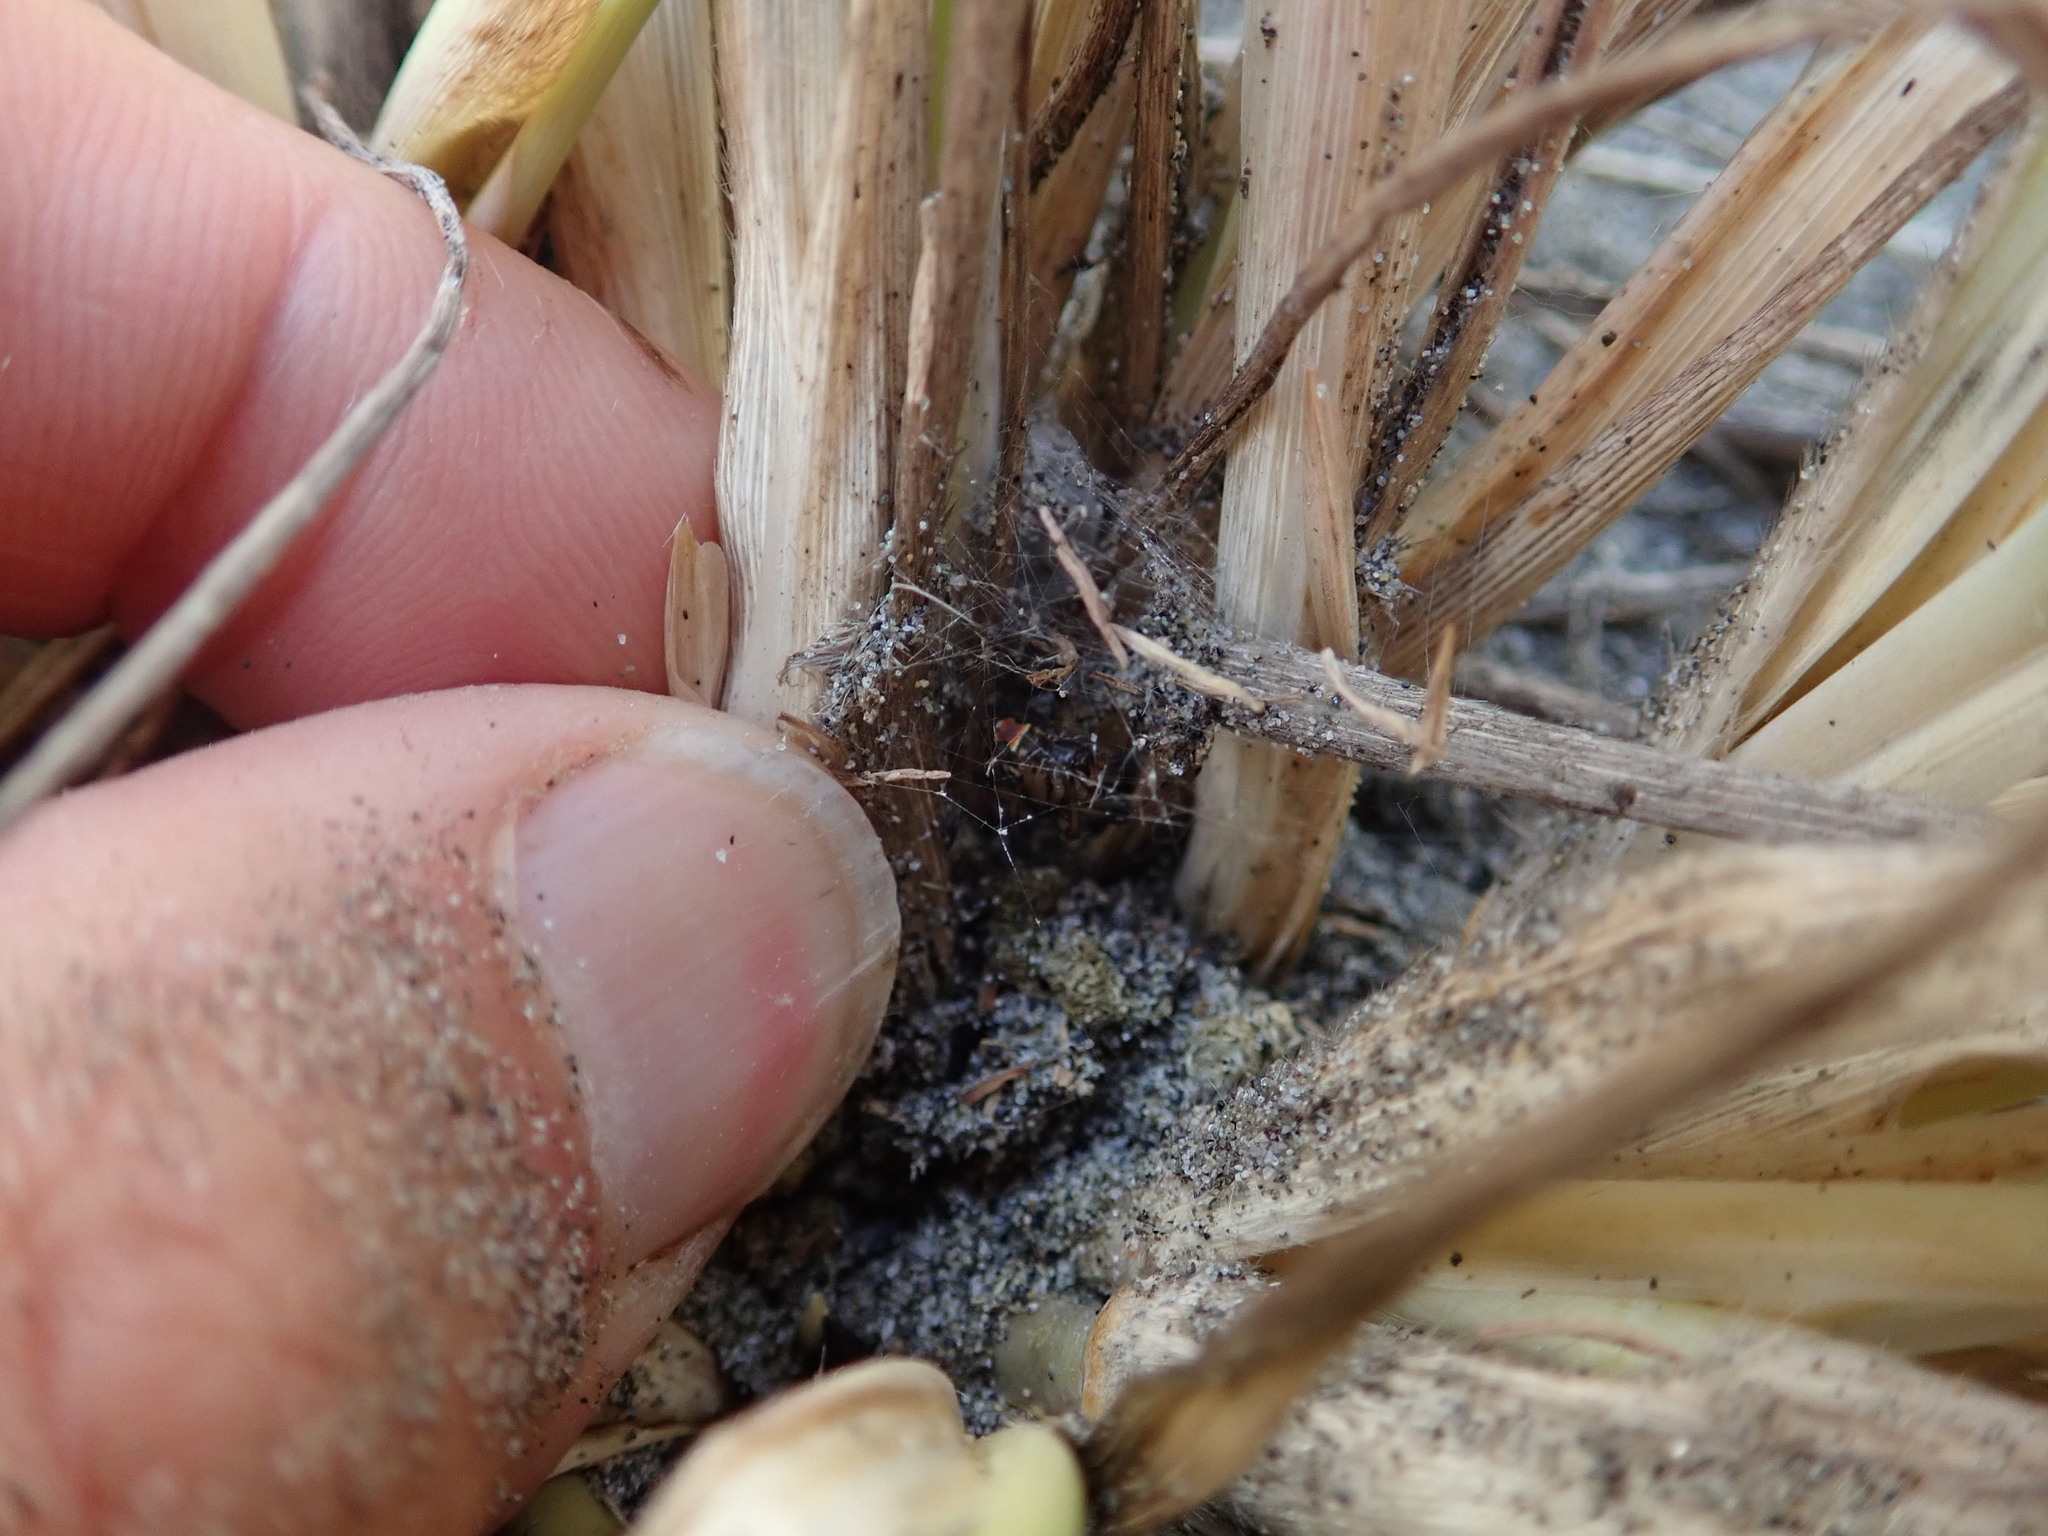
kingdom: Animalia
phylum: Arthropoda
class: Arachnida
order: Araneae
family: Theridiidae
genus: Latrodectus
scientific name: Latrodectus katipo
